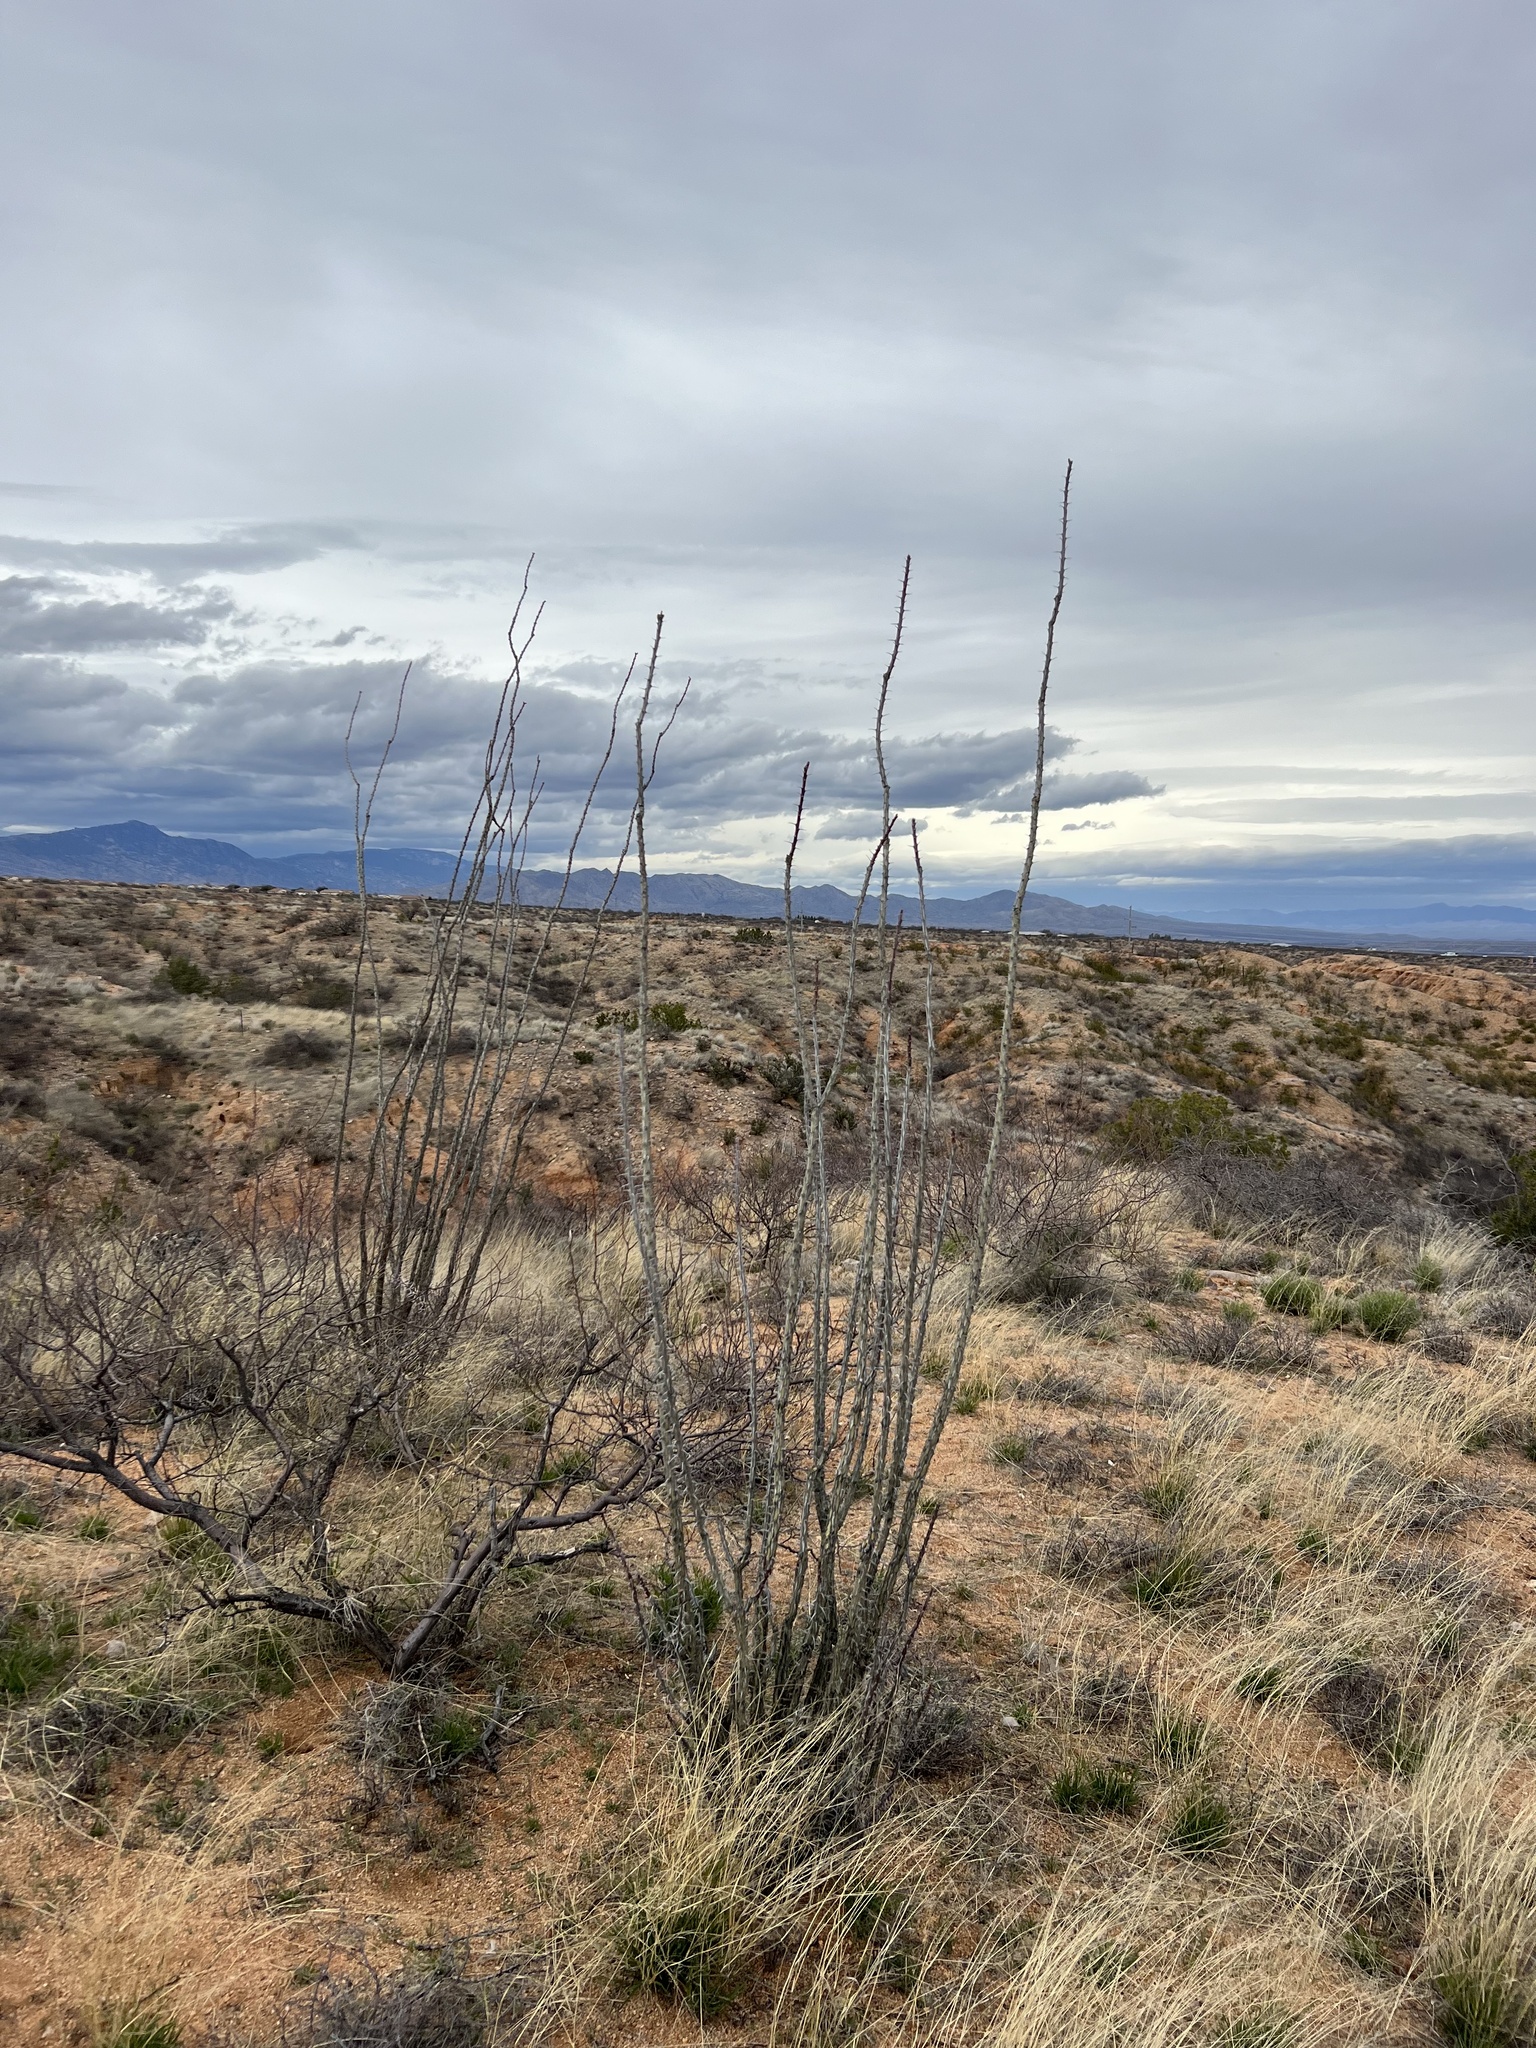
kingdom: Plantae
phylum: Tracheophyta
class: Magnoliopsida
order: Ericales
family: Fouquieriaceae
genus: Fouquieria
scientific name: Fouquieria splendens
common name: Vine-cactus
